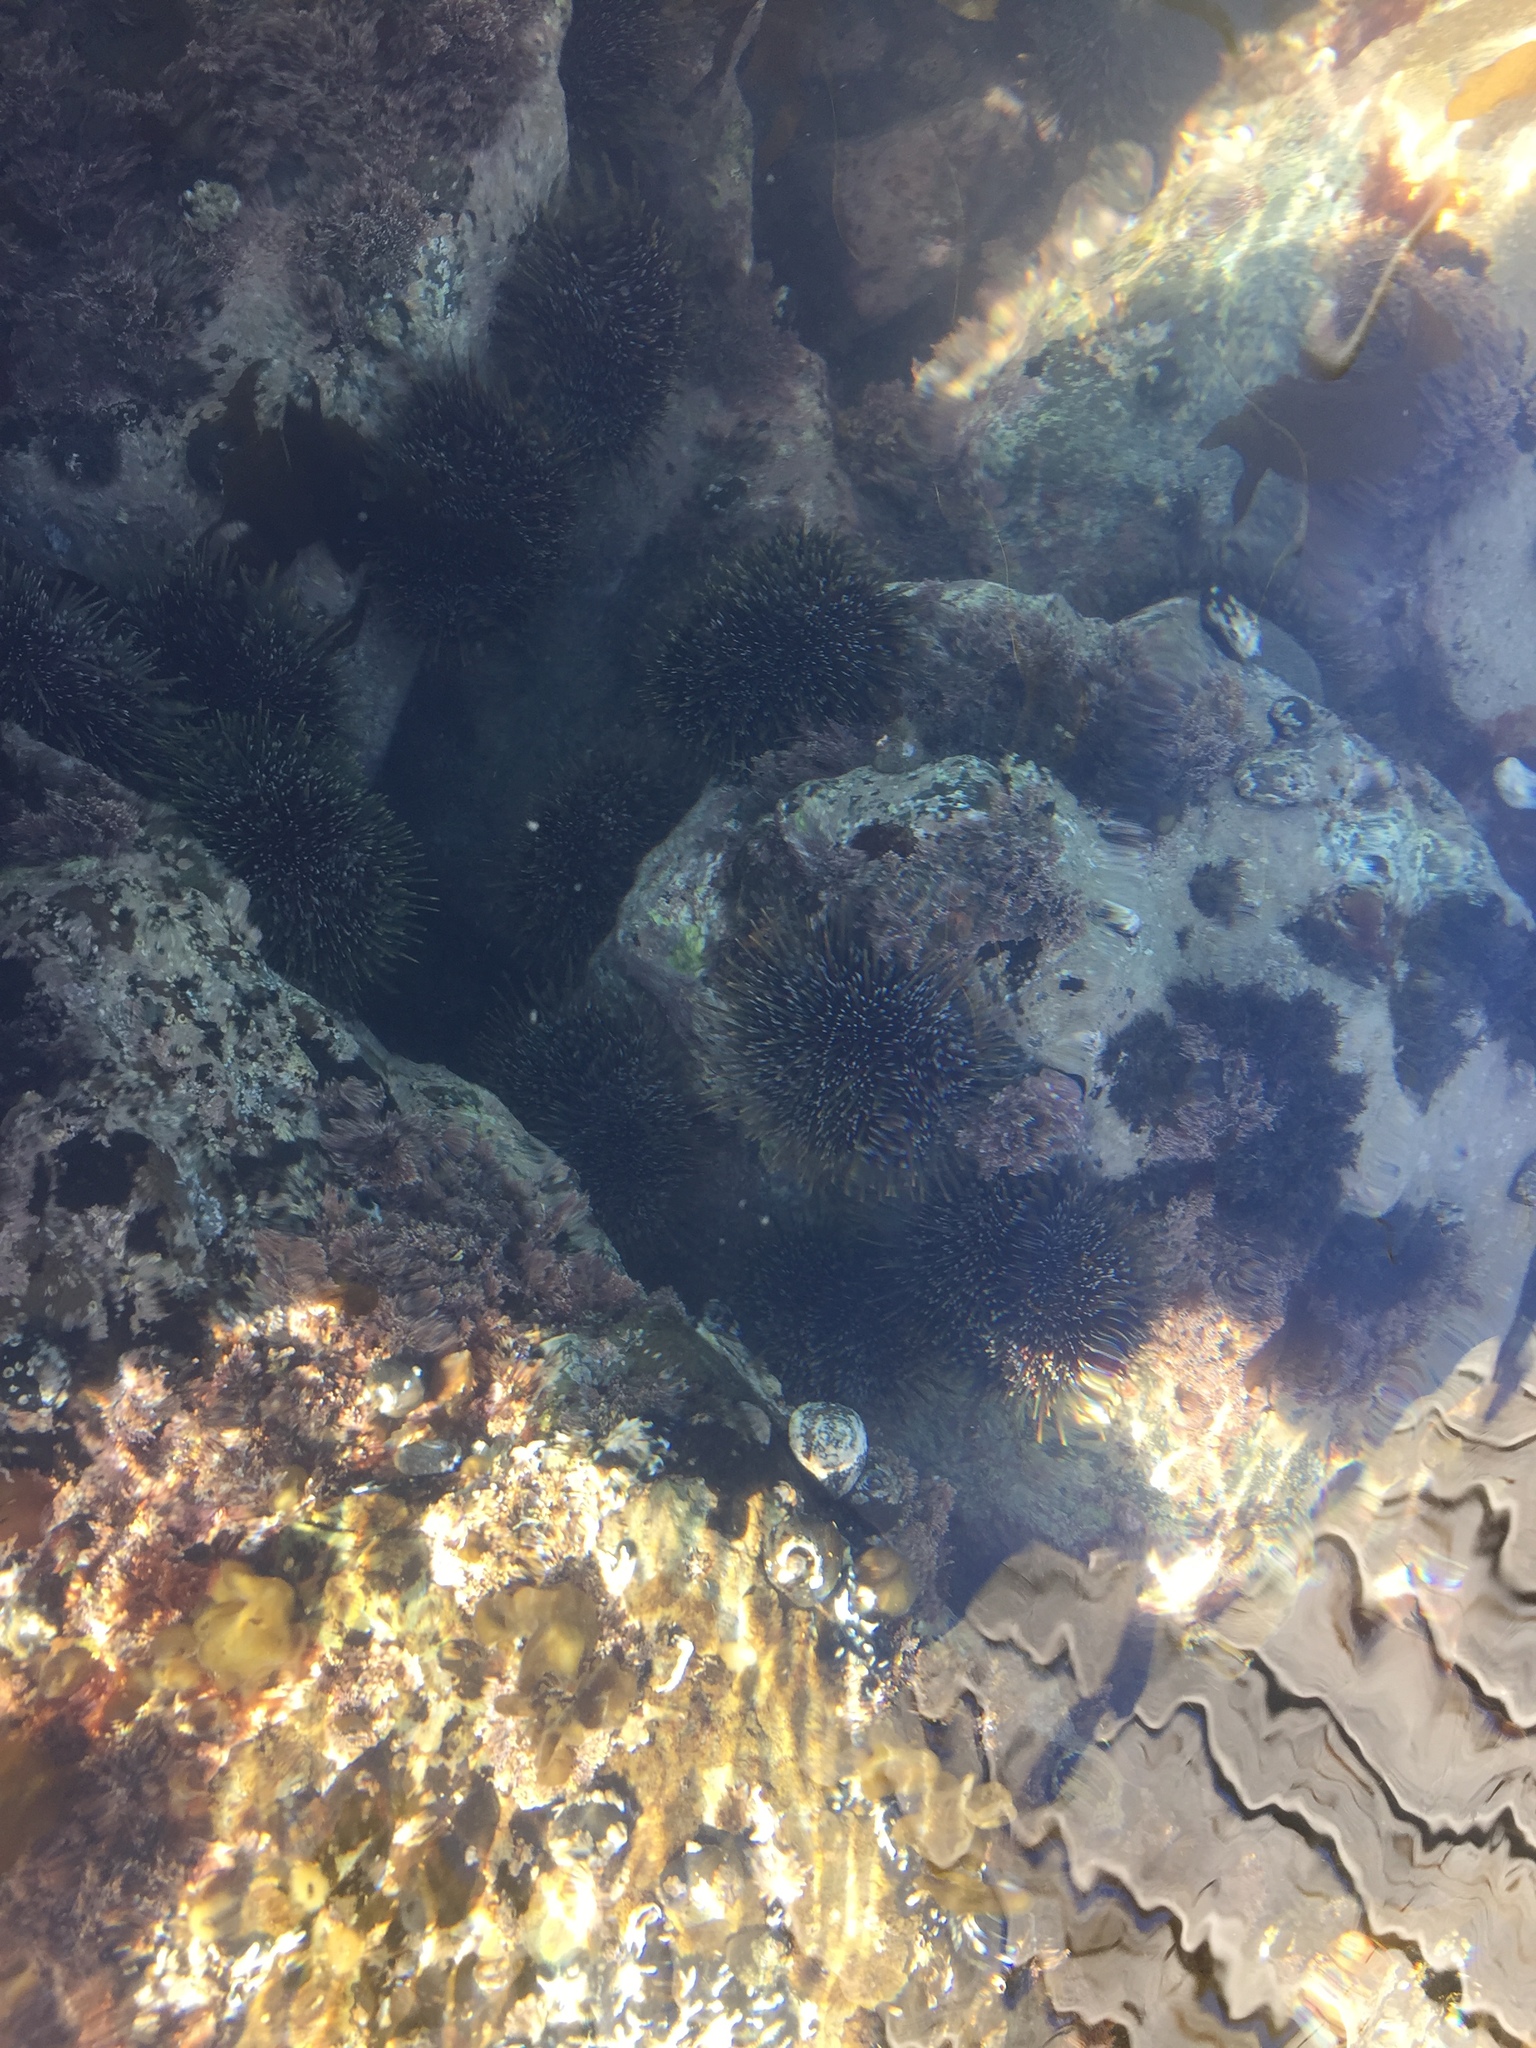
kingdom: Animalia
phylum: Echinodermata
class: Echinoidea
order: Camarodonta
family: Echinometridae
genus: Evechinus
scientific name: Evechinus chloroticus
